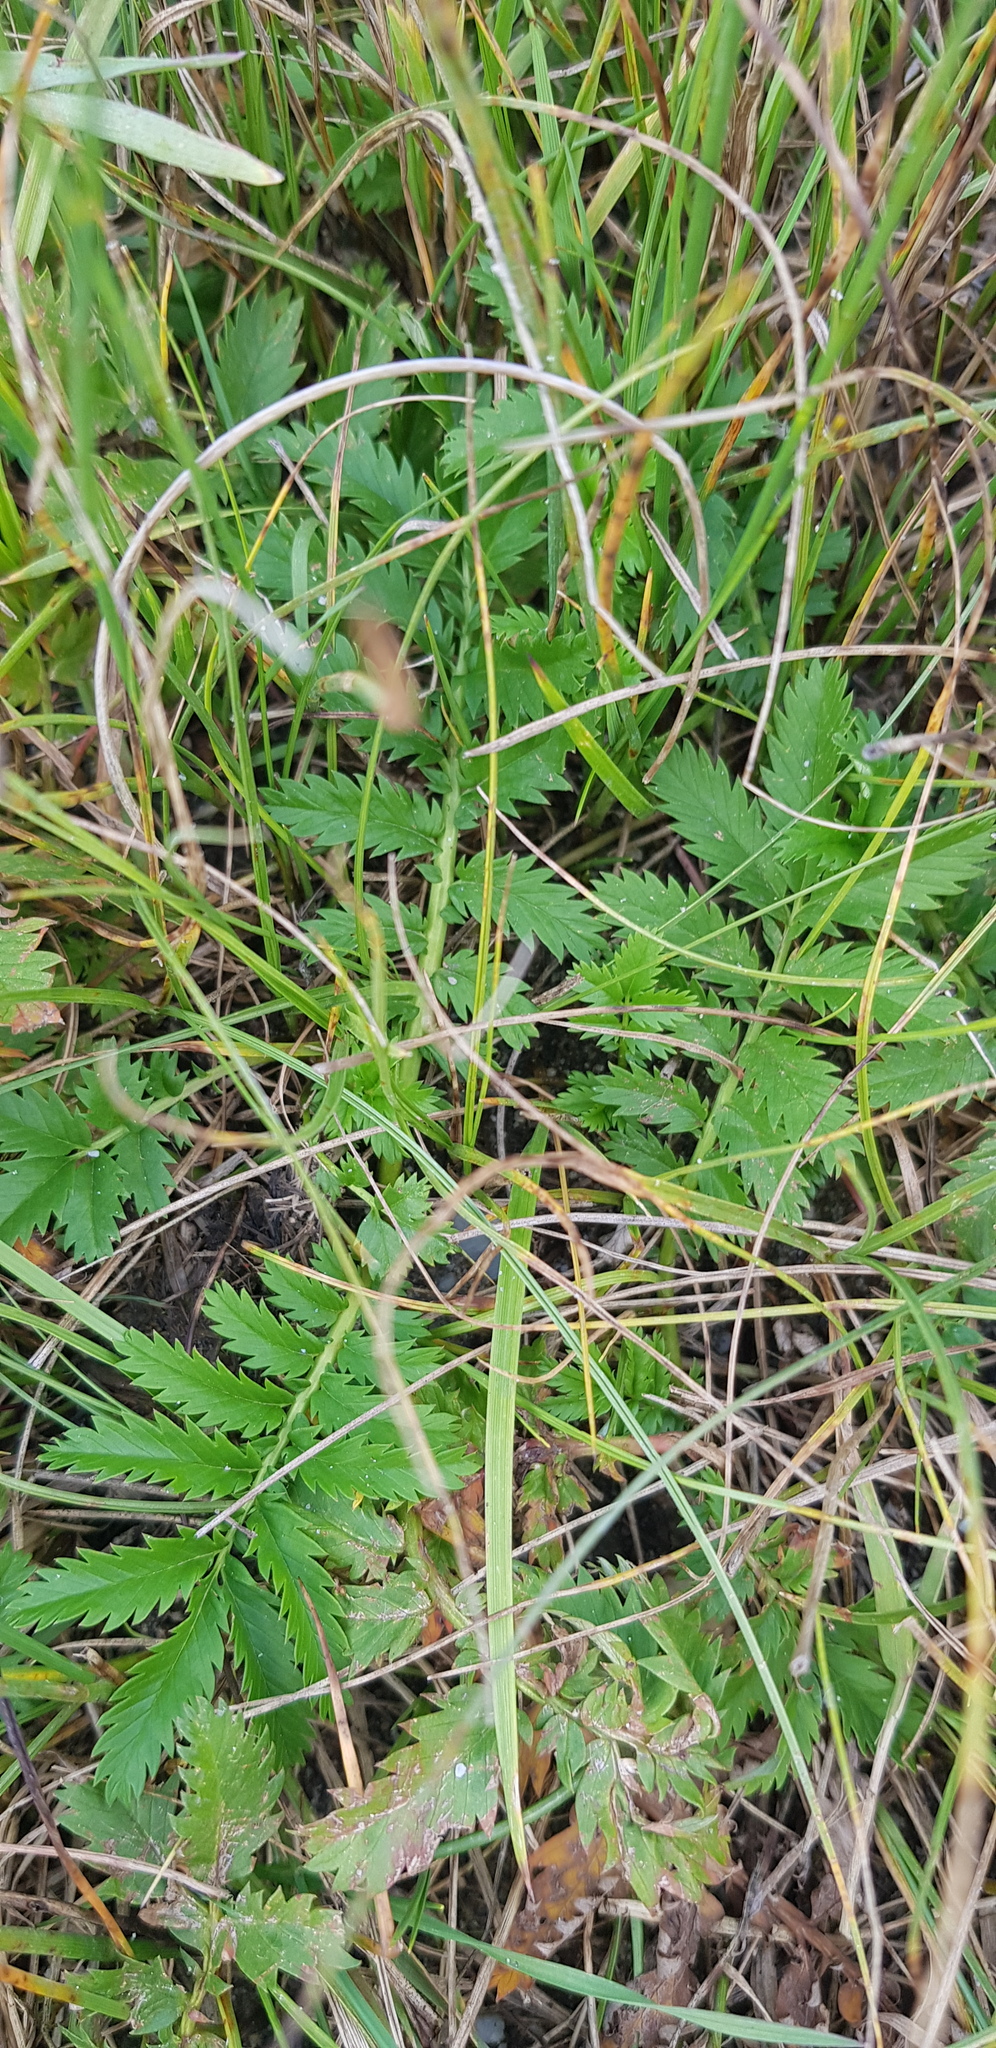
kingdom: Plantae
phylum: Tracheophyta
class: Magnoliopsida
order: Rosales
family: Rosaceae
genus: Potentilla
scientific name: Potentilla longifolia
